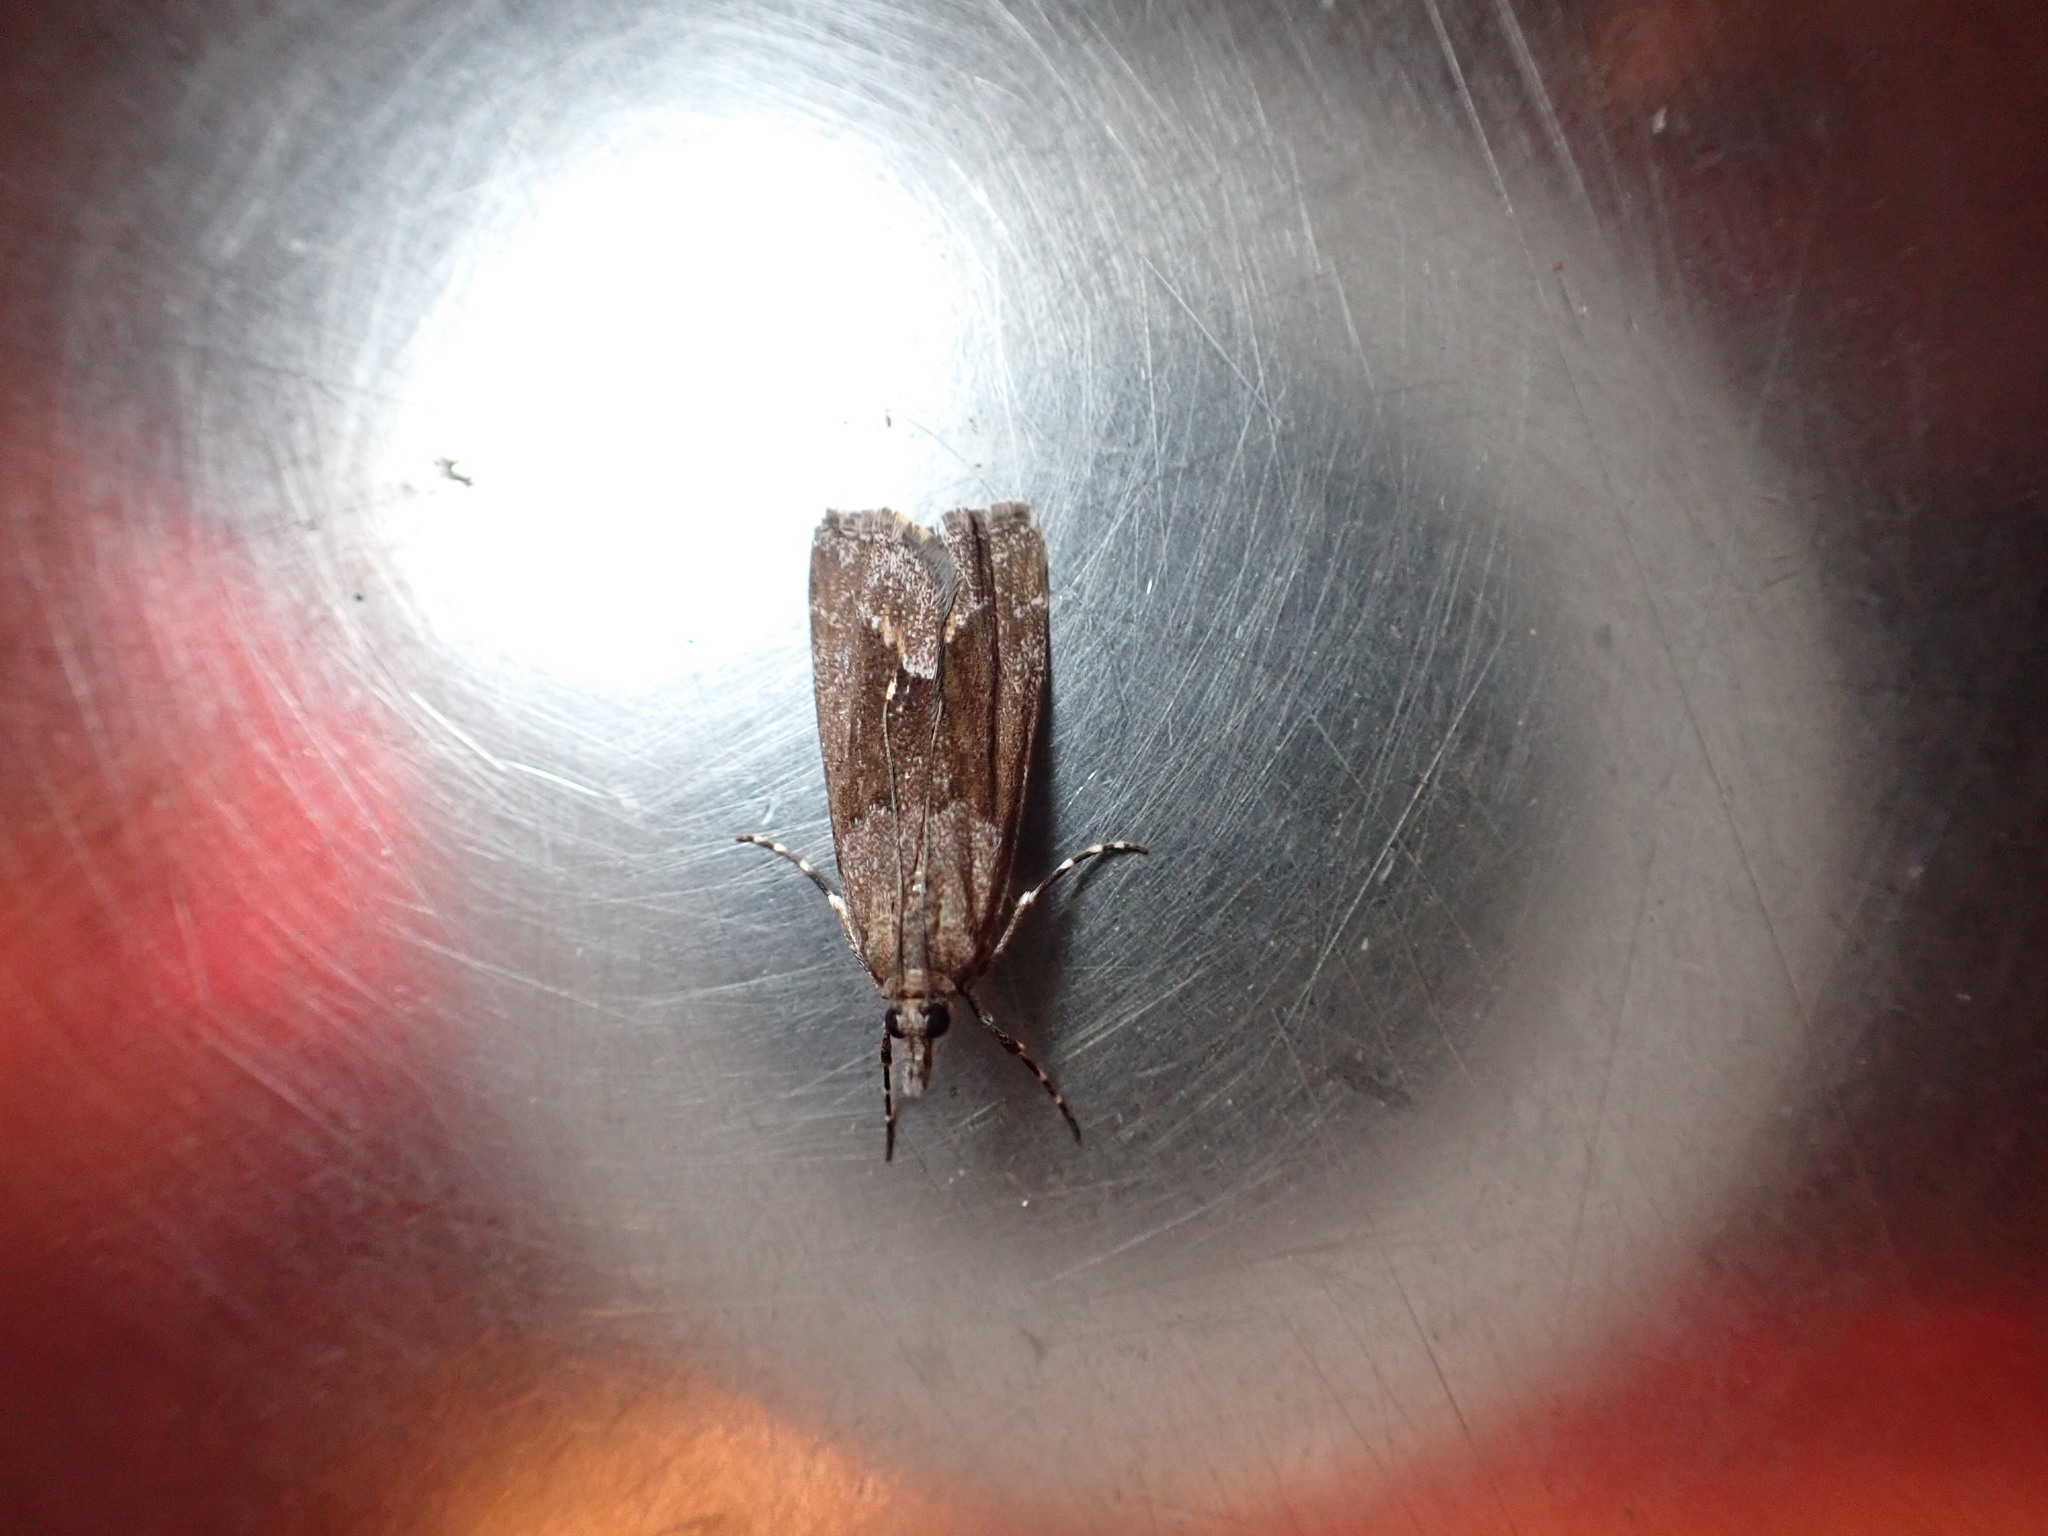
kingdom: Animalia
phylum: Arthropoda
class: Insecta
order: Lepidoptera
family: Crambidae
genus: Eudonia
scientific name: Eudonia submarginalis
